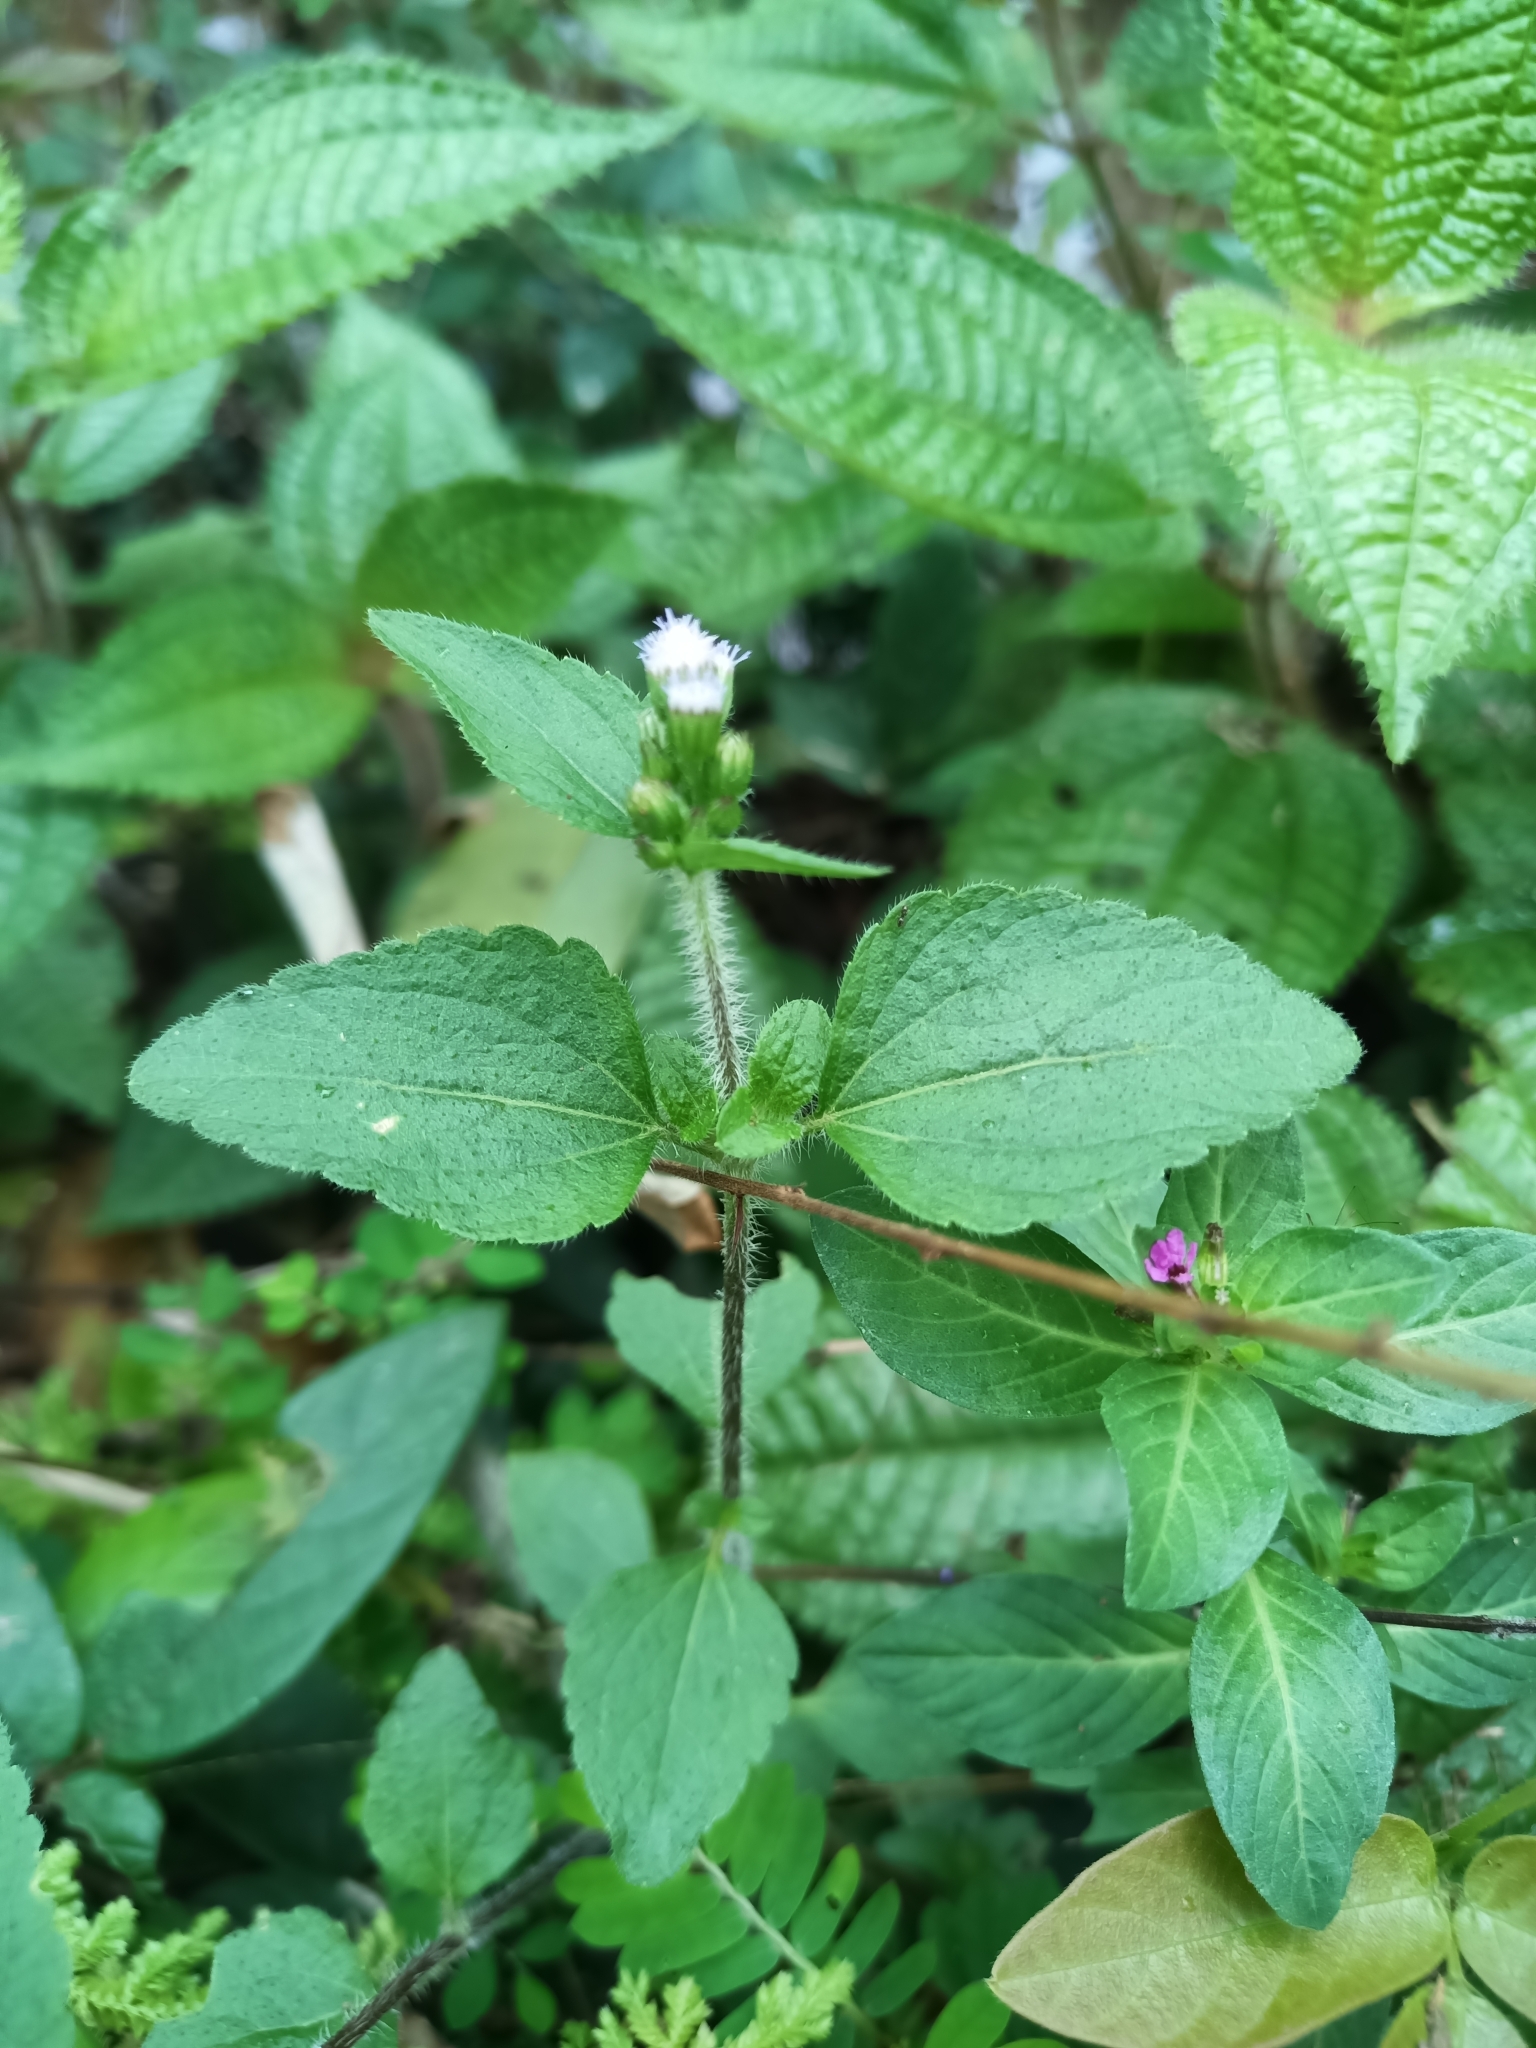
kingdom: Plantae
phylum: Tracheophyta
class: Magnoliopsida
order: Asterales
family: Asteraceae
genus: Ageratum
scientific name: Ageratum conyzoides
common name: Tropical whiteweed
